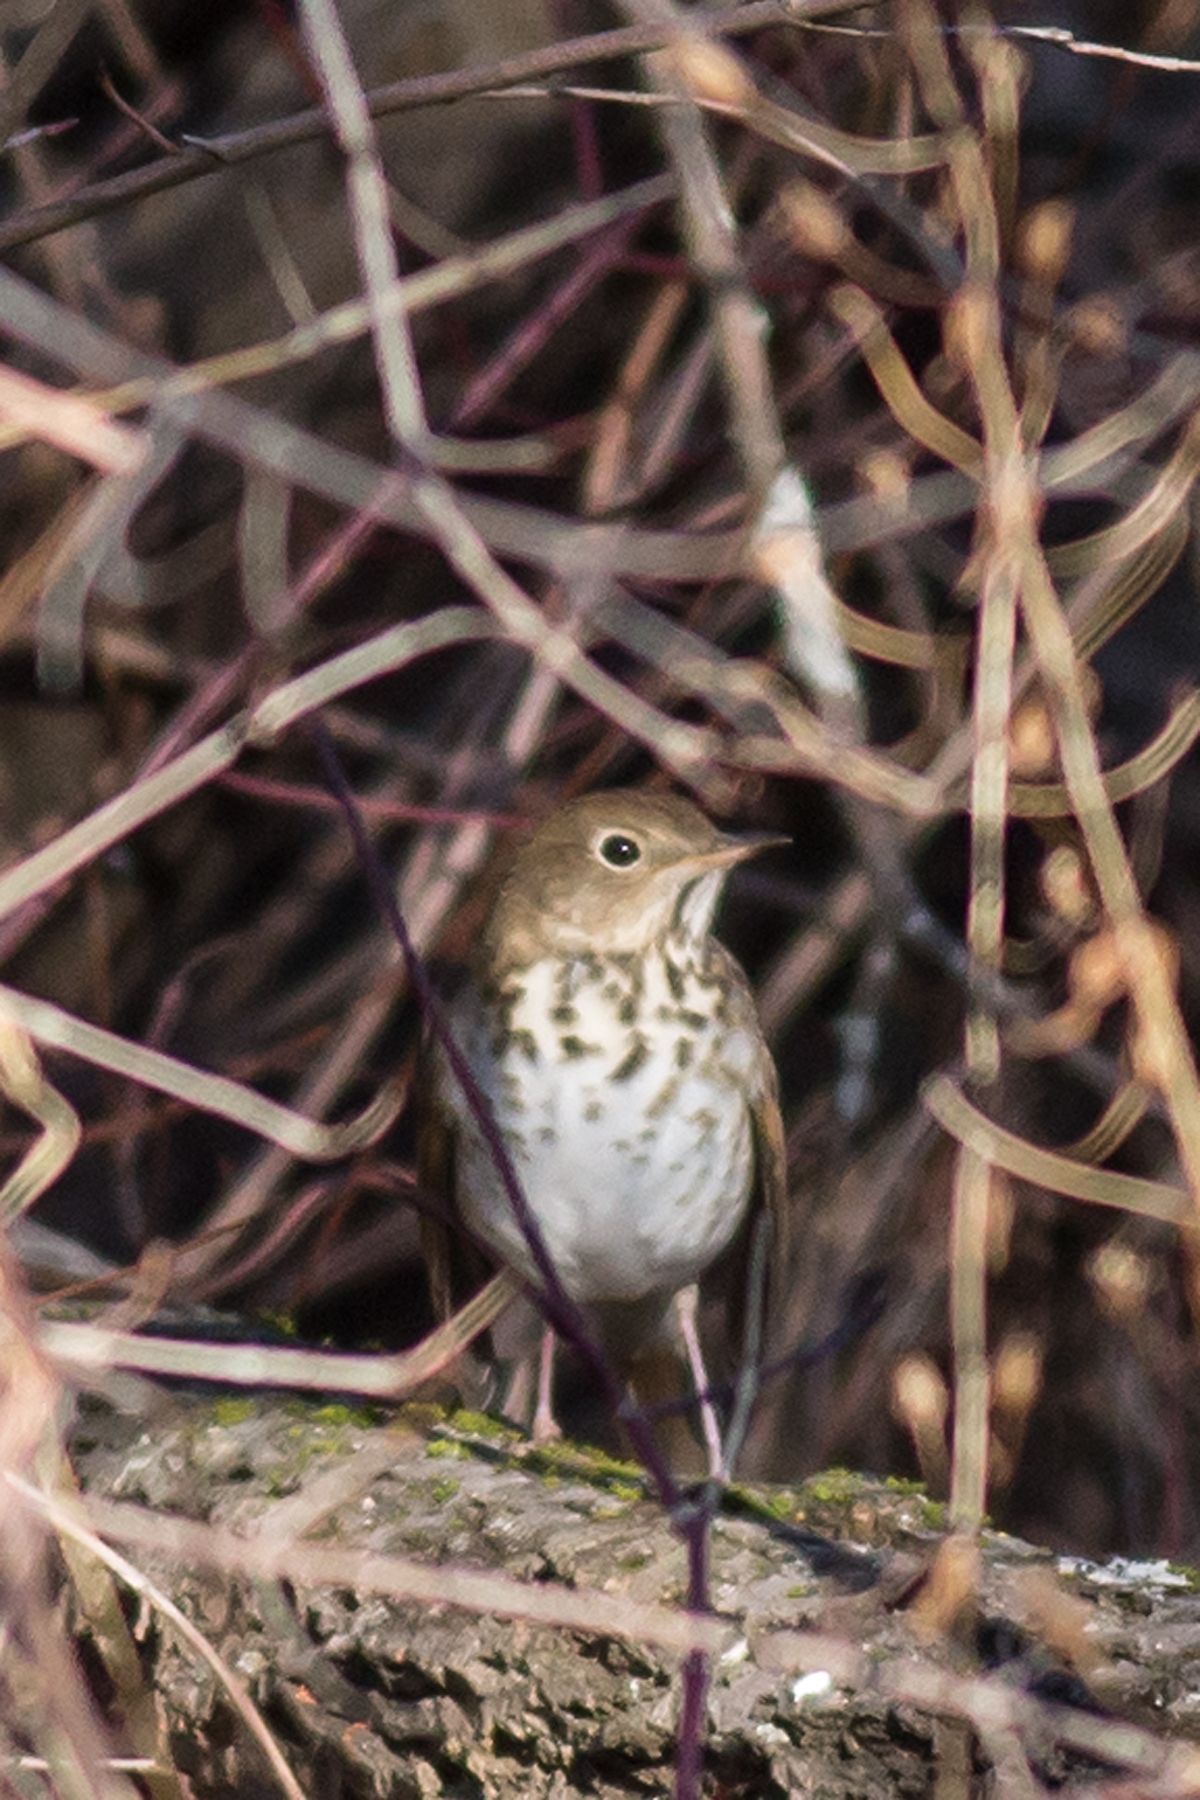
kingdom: Animalia
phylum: Chordata
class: Aves
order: Passeriformes
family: Turdidae
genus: Catharus
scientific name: Catharus guttatus
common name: Hermit thrush
